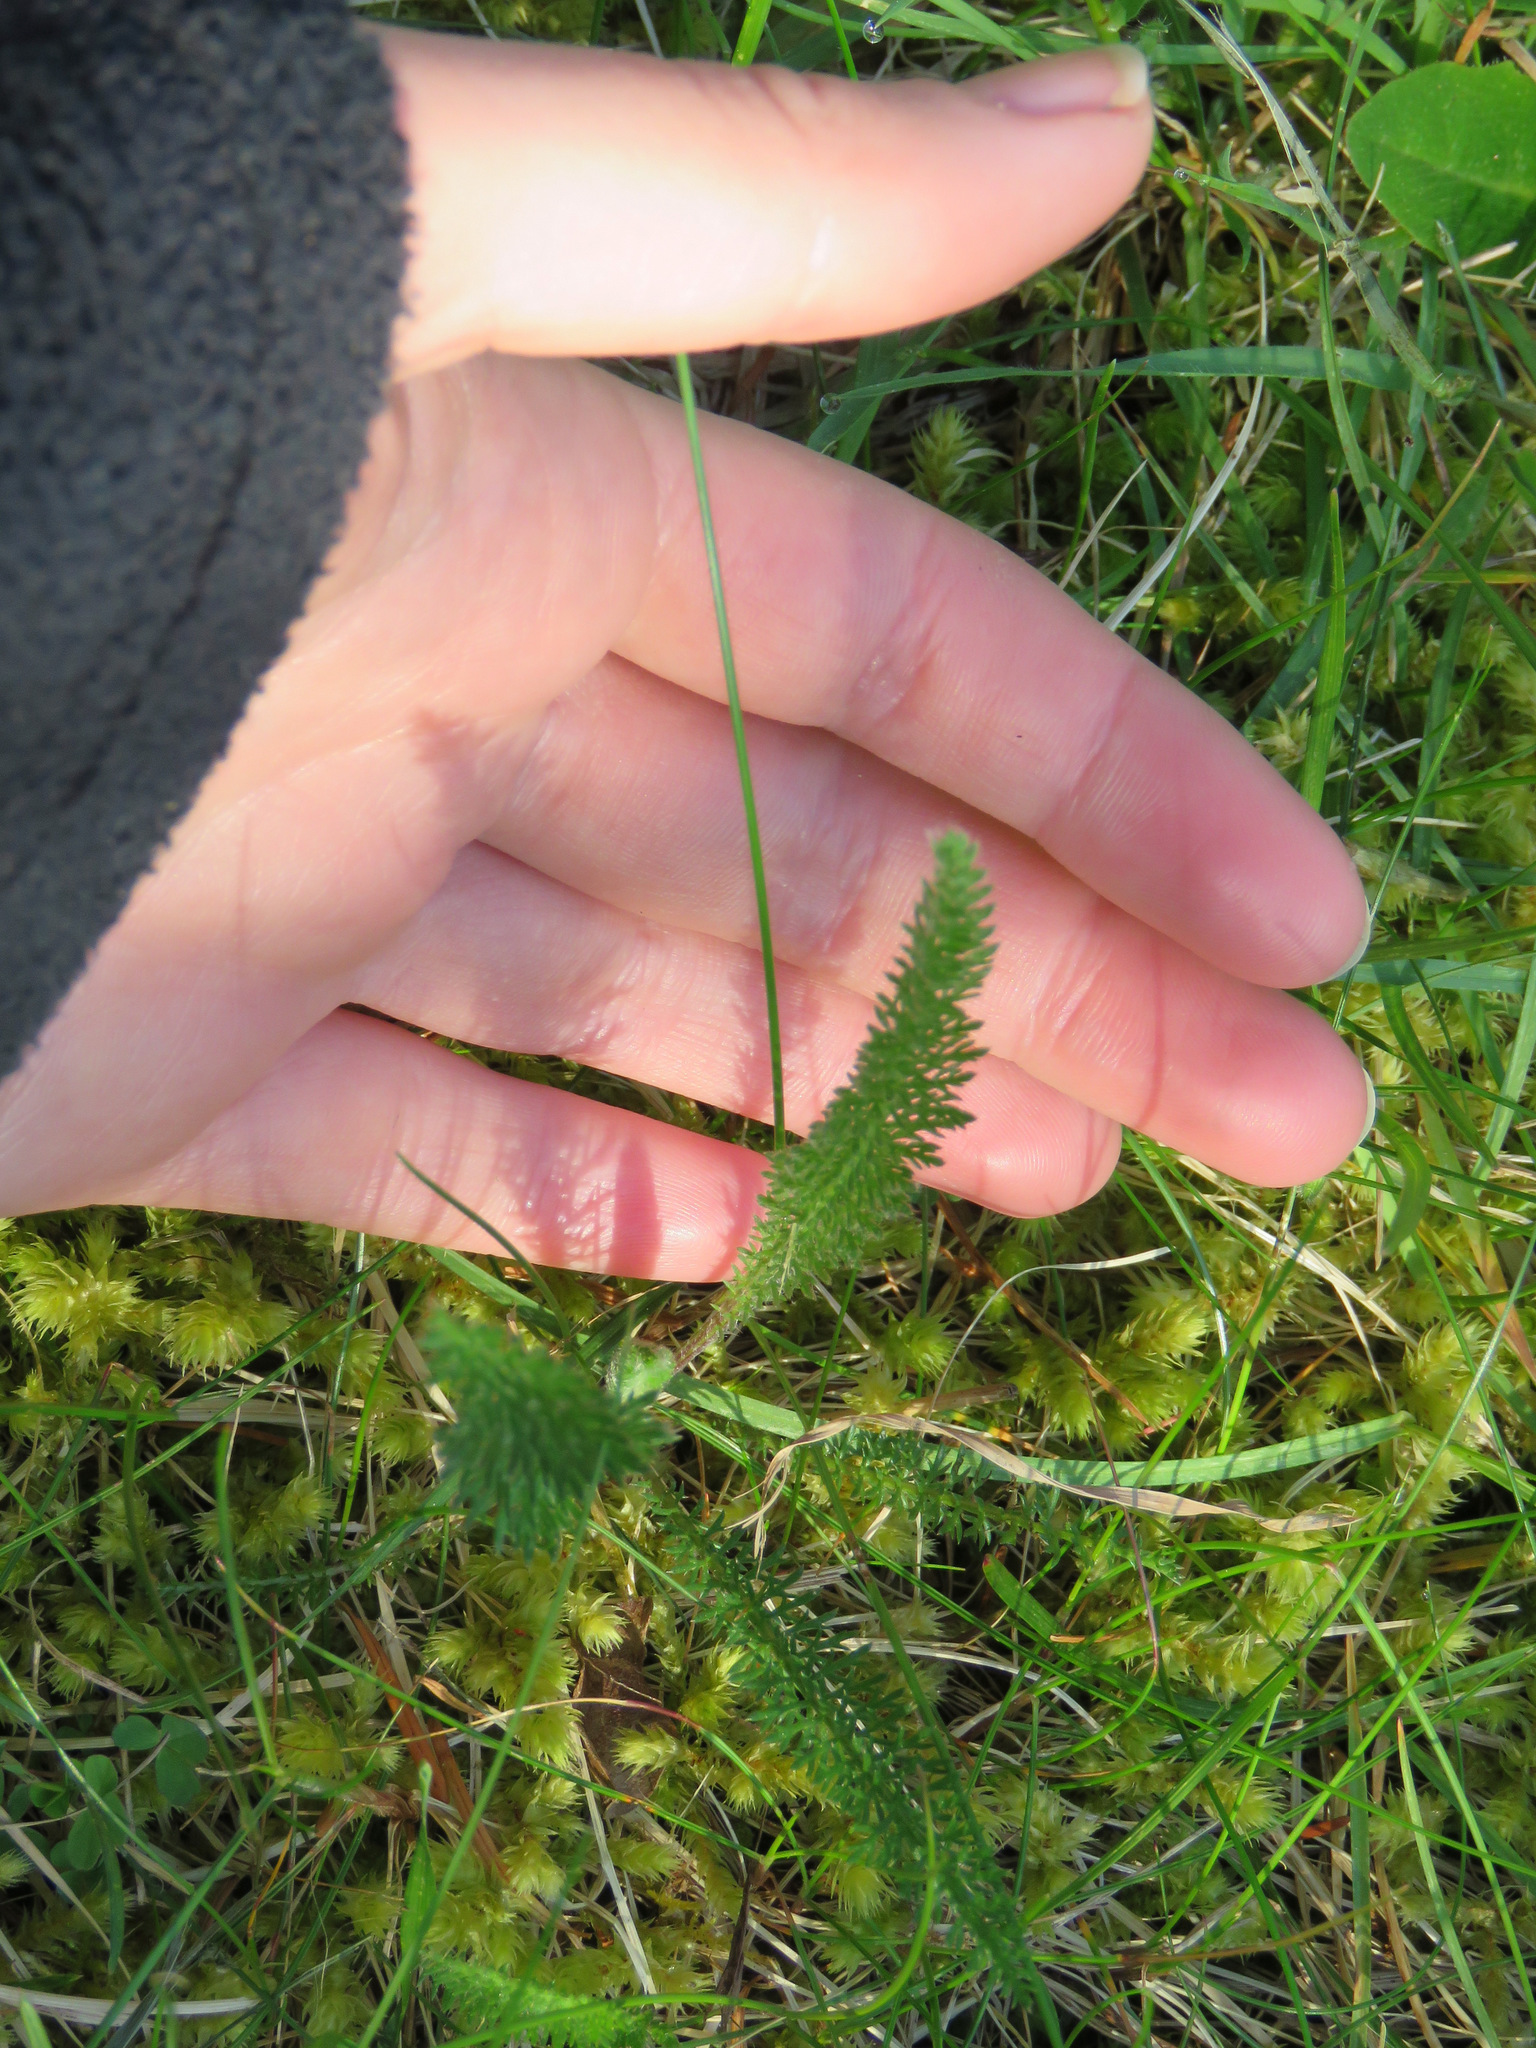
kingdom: Plantae
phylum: Tracheophyta
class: Magnoliopsida
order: Asterales
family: Asteraceae
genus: Achillea
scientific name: Achillea millefolium
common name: Yarrow
